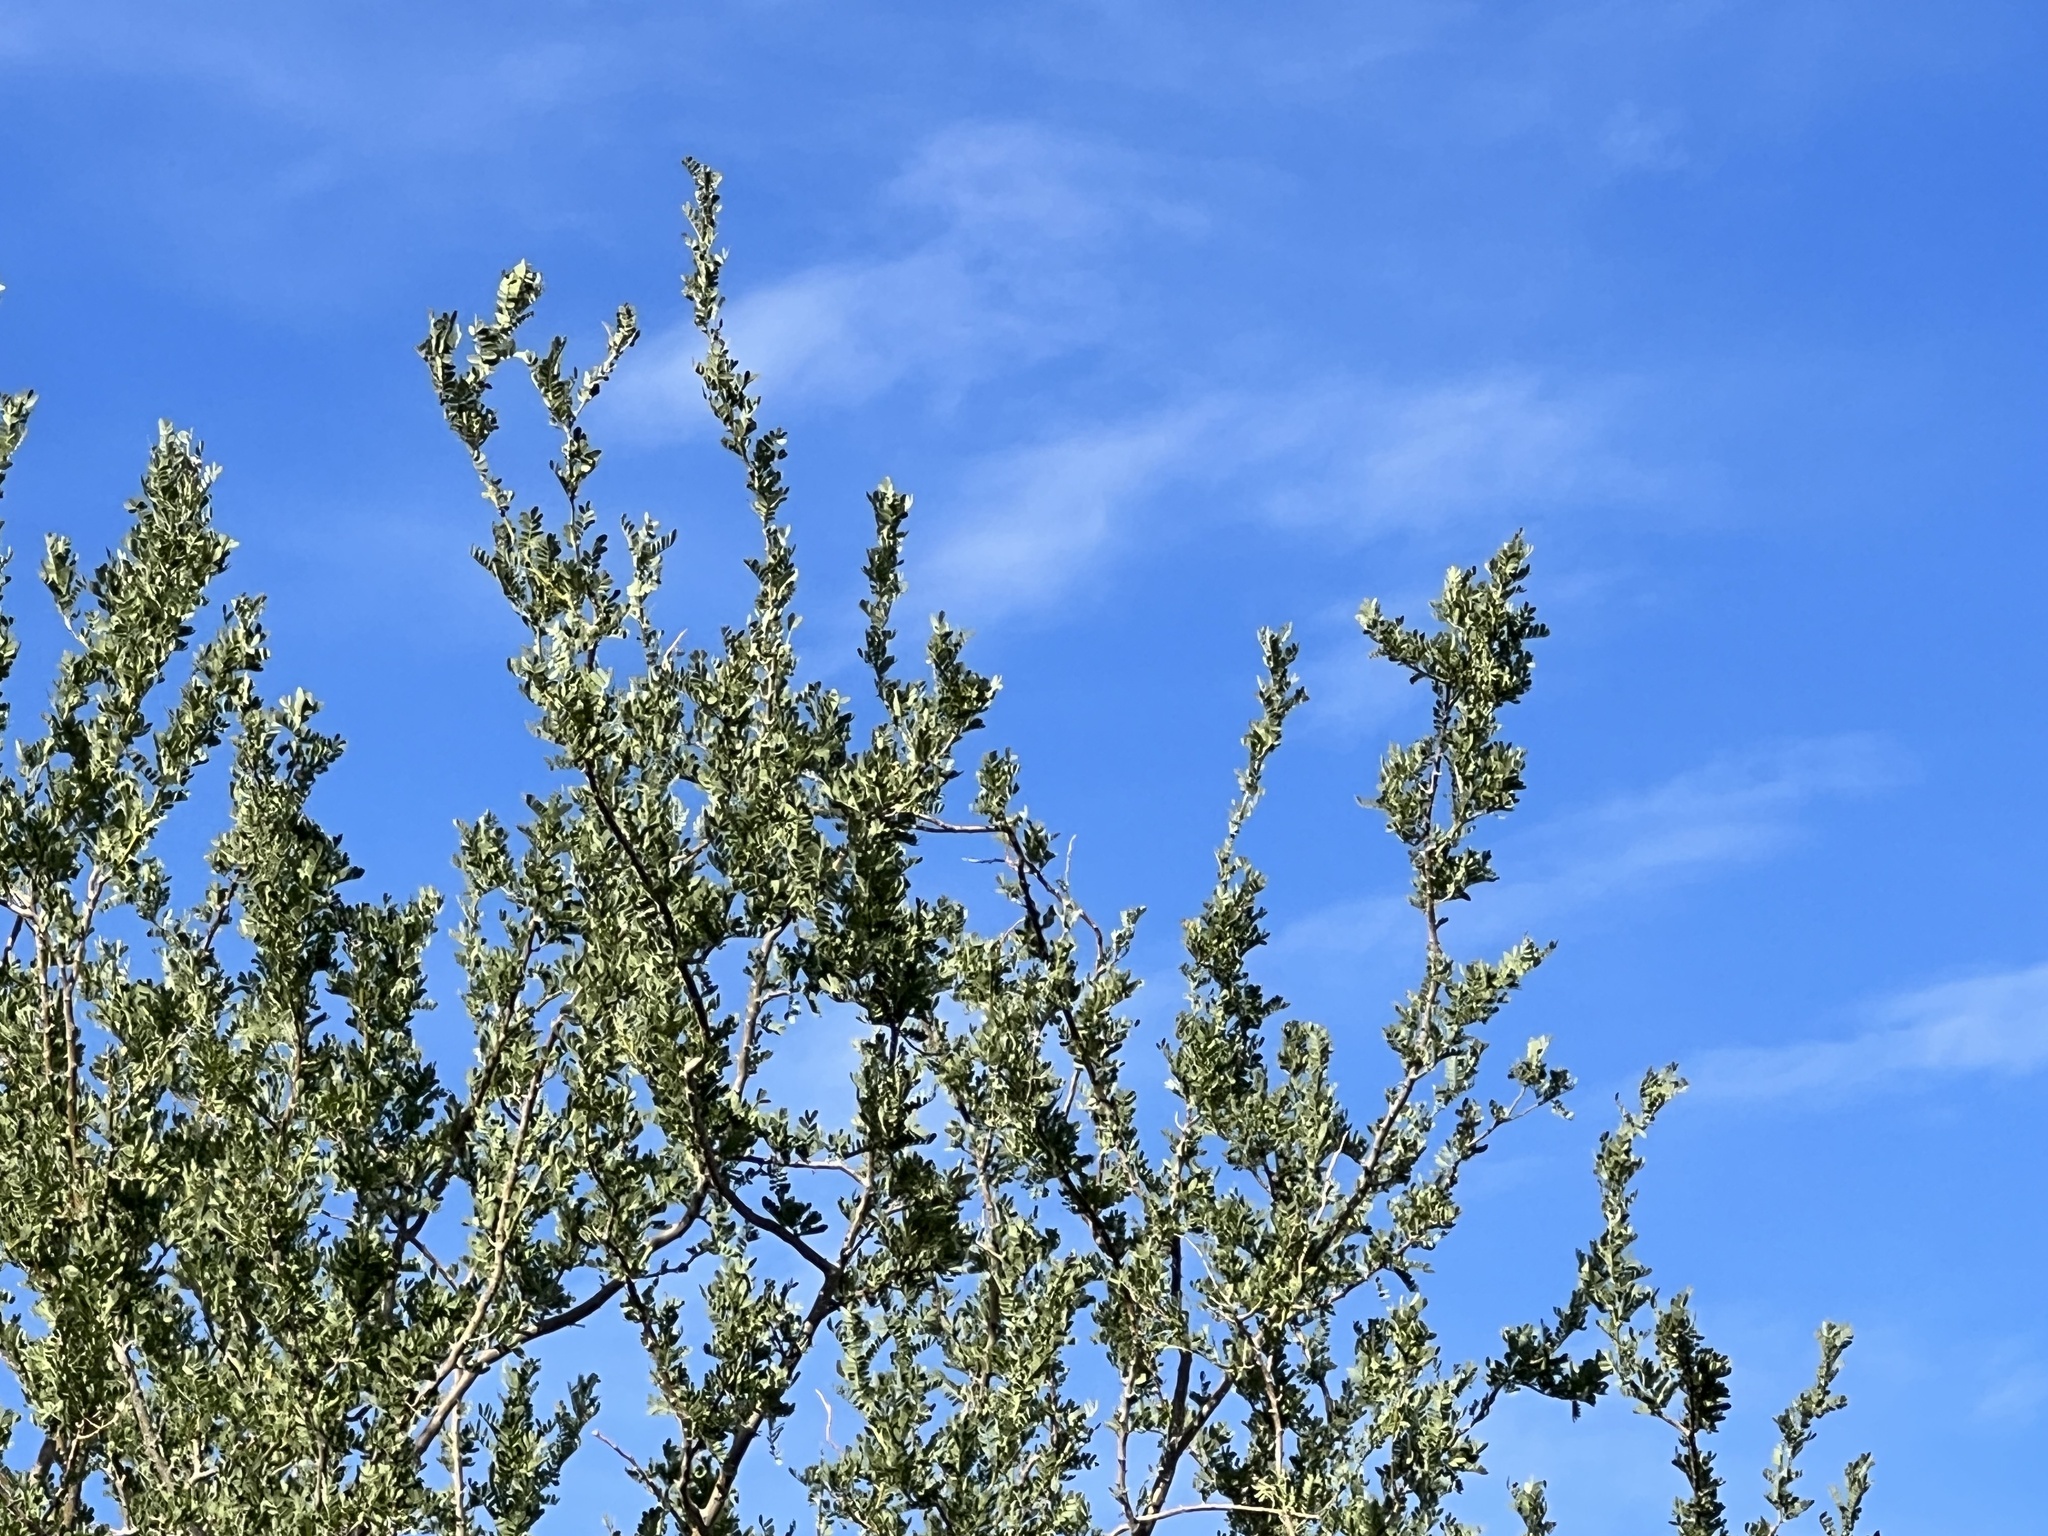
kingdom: Plantae
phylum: Tracheophyta
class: Magnoliopsida
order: Fabales
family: Fabaceae
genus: Olneya
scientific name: Olneya tesota
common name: Desert ironwood
